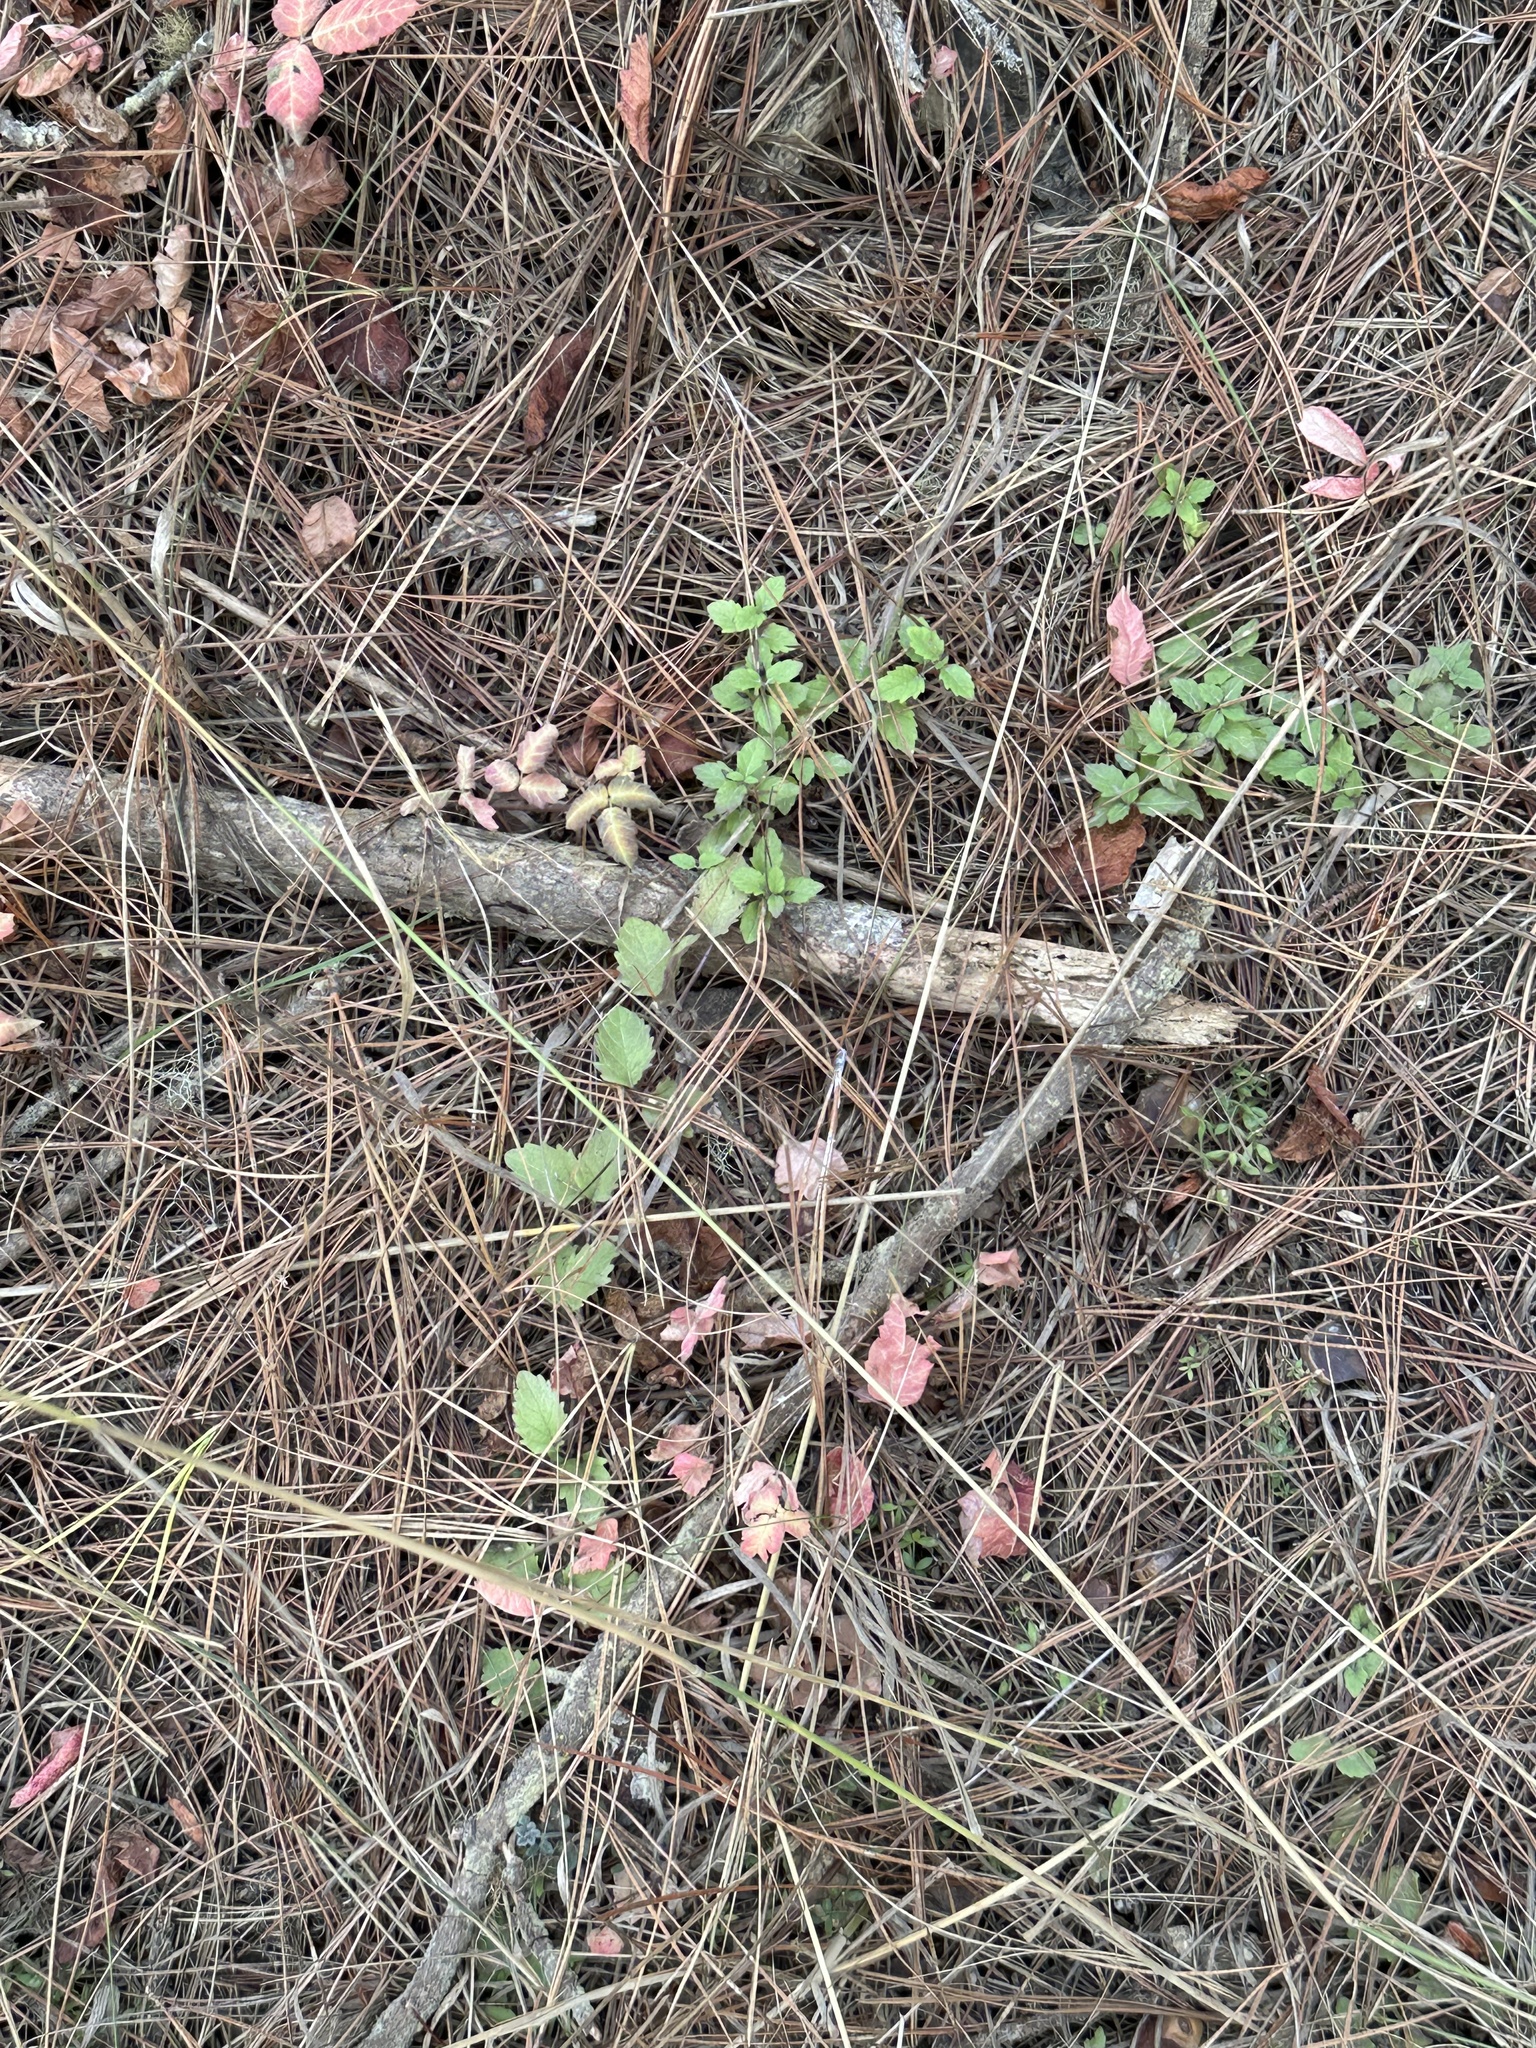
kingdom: Plantae
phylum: Tracheophyta
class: Magnoliopsida
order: Lamiales
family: Lamiaceae
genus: Micromeria
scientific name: Micromeria douglasii
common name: Yerba buena
